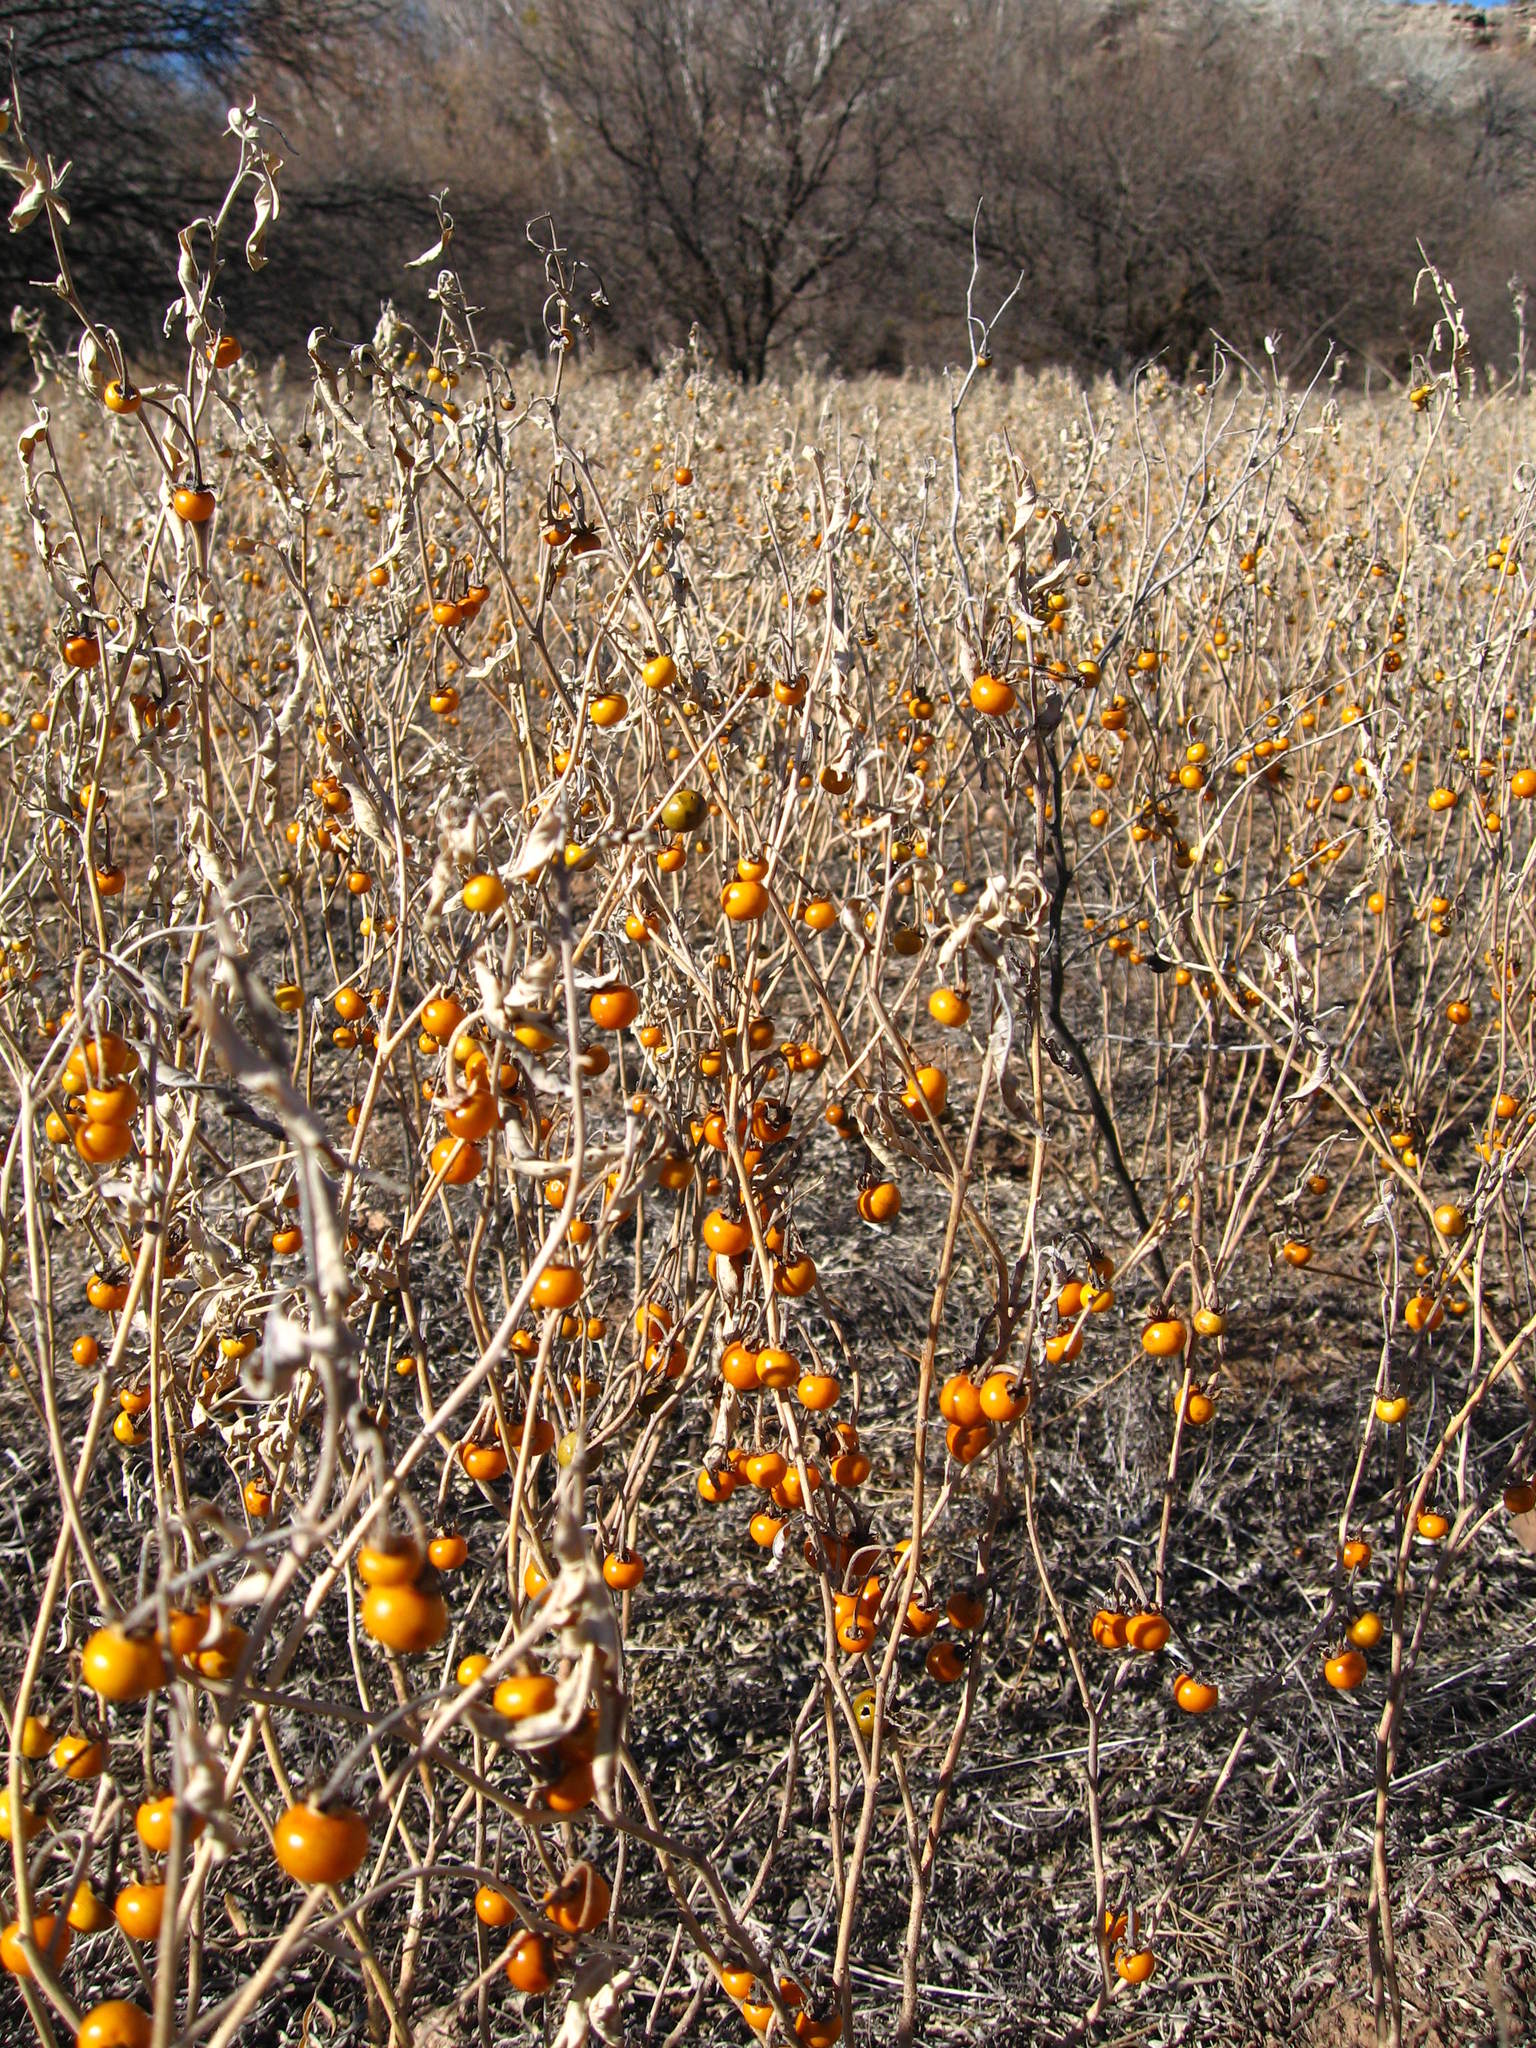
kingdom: Plantae
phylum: Tracheophyta
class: Magnoliopsida
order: Solanales
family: Solanaceae
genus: Solanum
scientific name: Solanum elaeagnifolium
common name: Silverleaf nightshade
